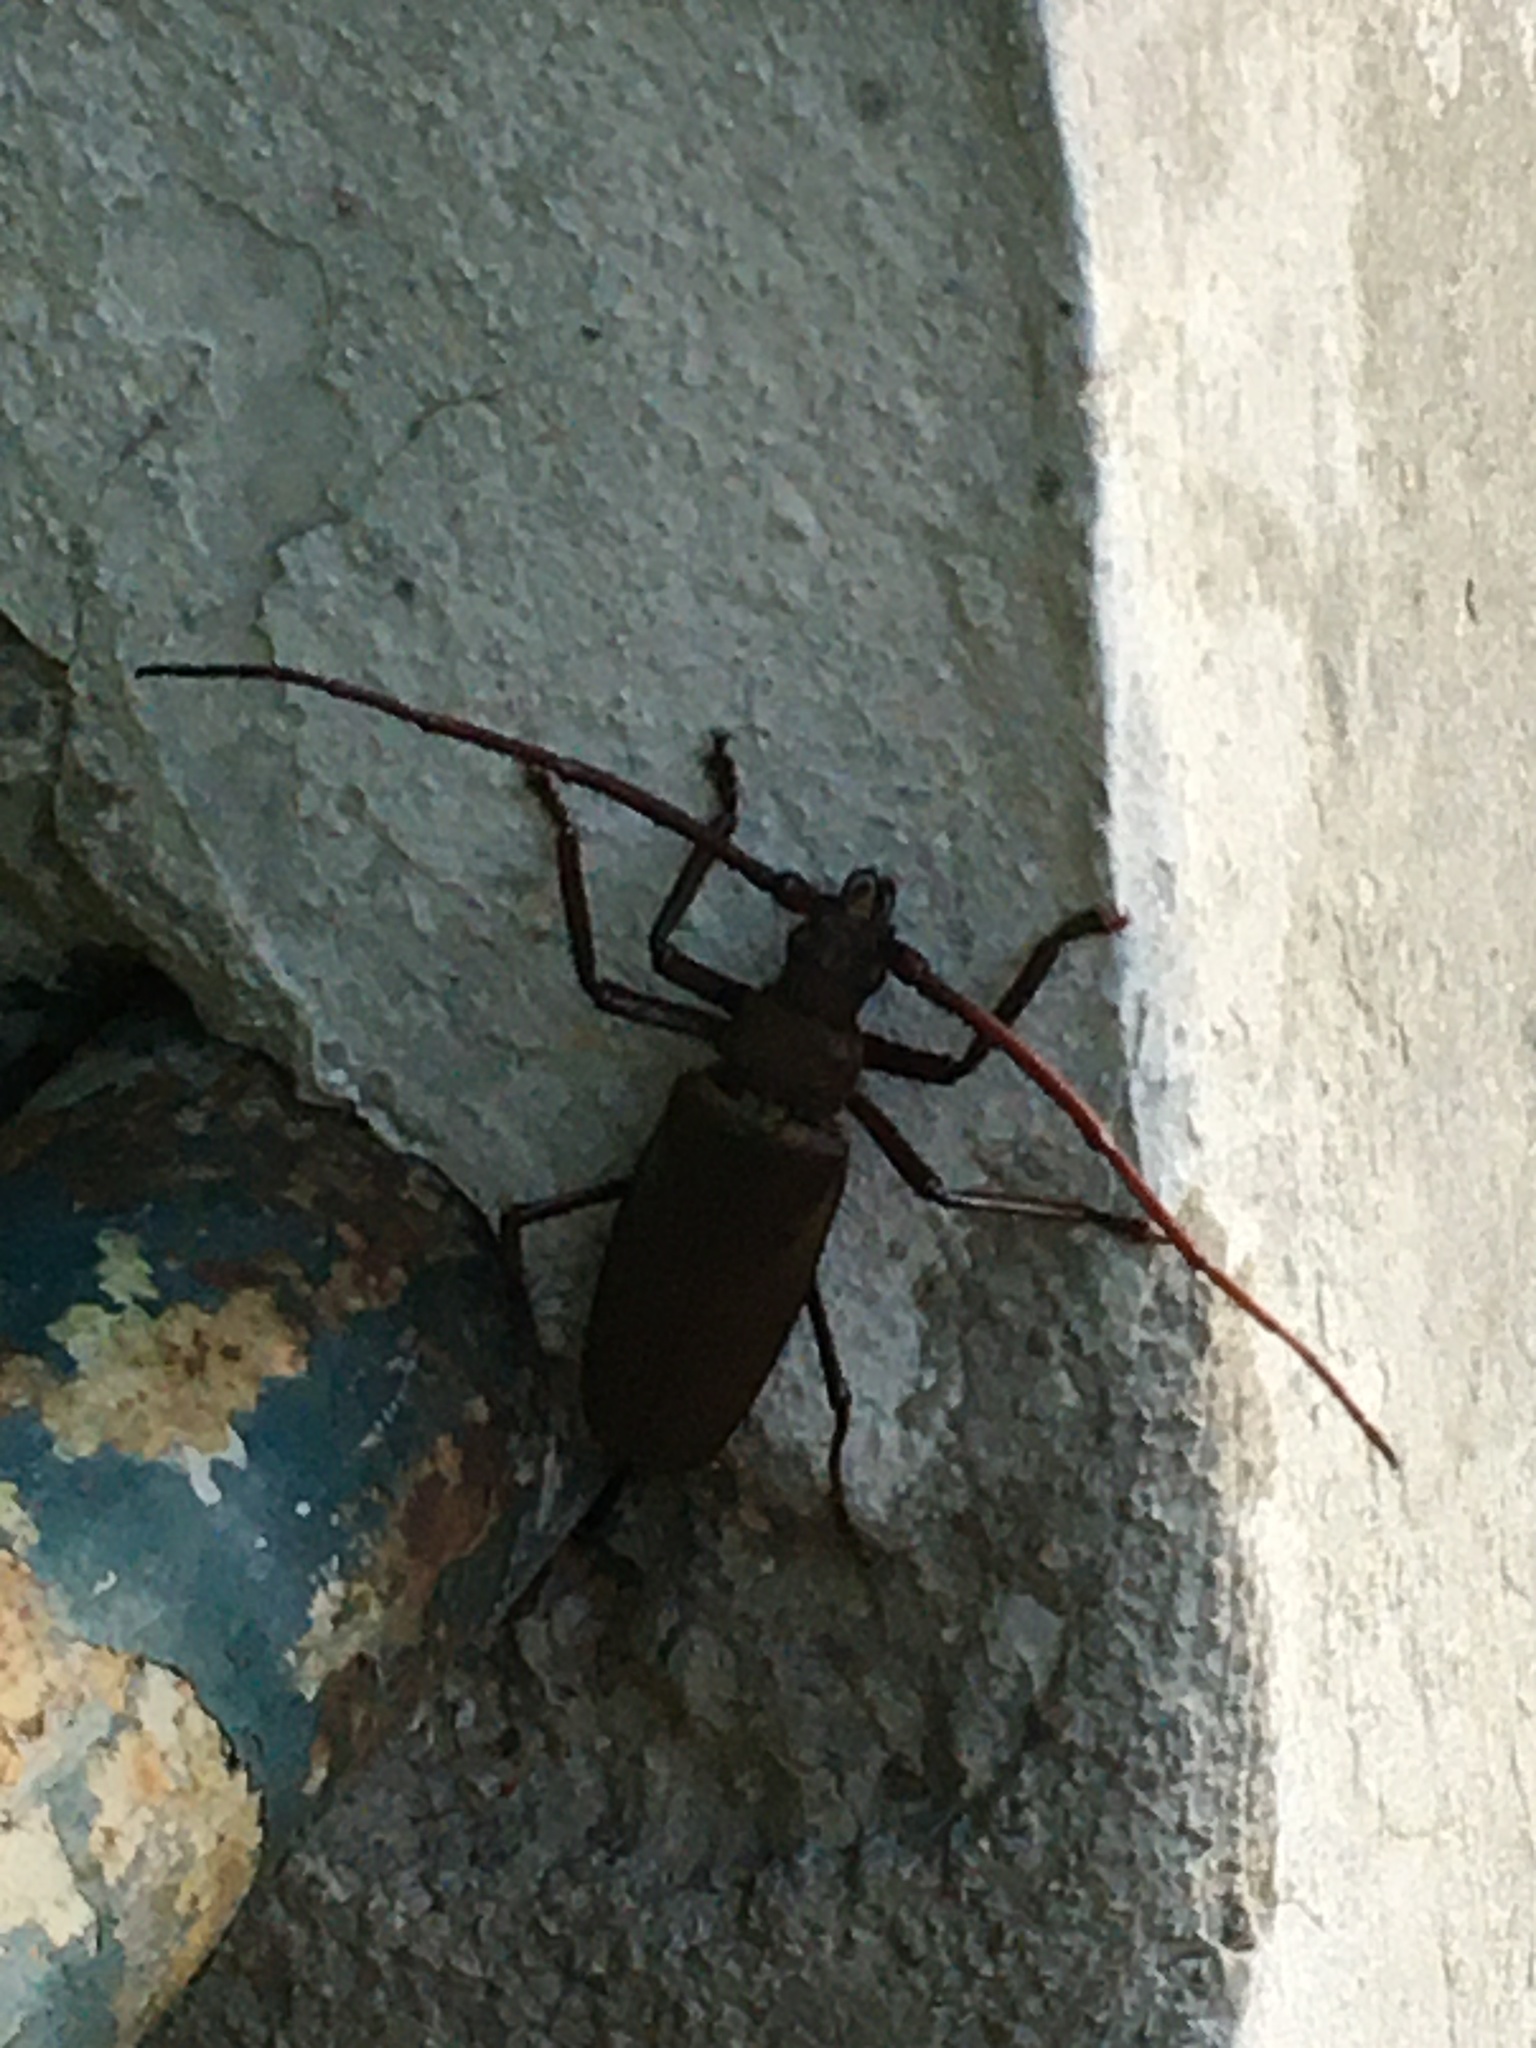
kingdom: Animalia
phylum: Arthropoda
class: Insecta
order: Coleoptera
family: Cerambycidae
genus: Aegosoma
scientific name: Aegosoma scabricorne
